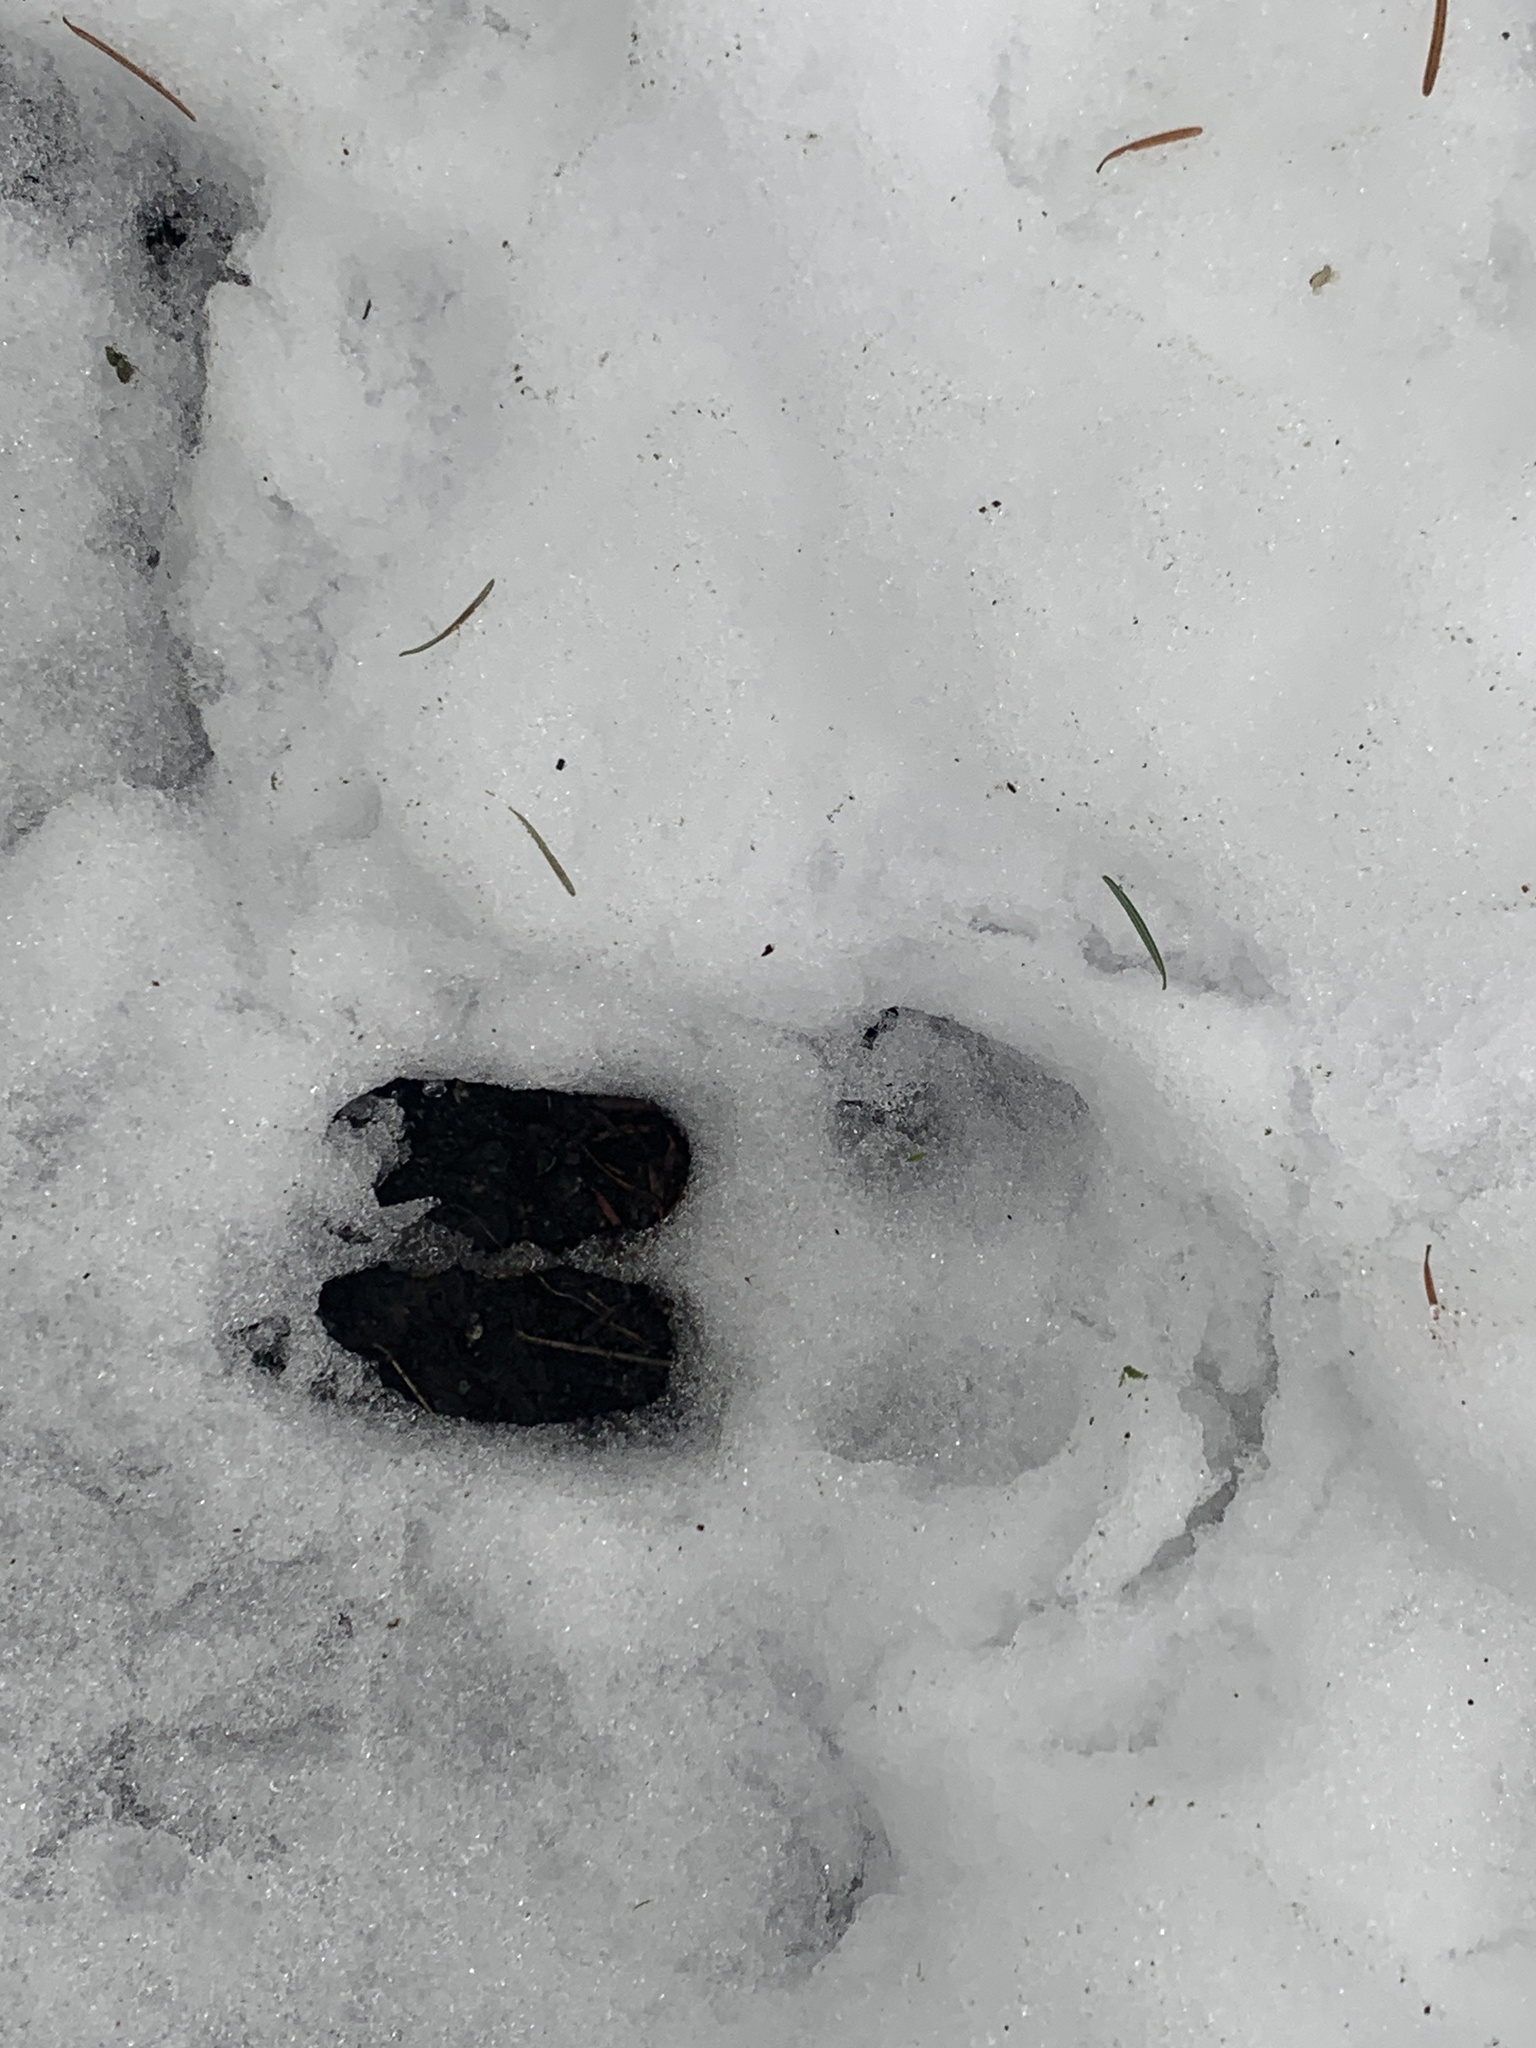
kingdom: Animalia
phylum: Chordata
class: Mammalia
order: Artiodactyla
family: Cervidae
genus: Odocoileus
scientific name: Odocoileus hemionus
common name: Mule deer
